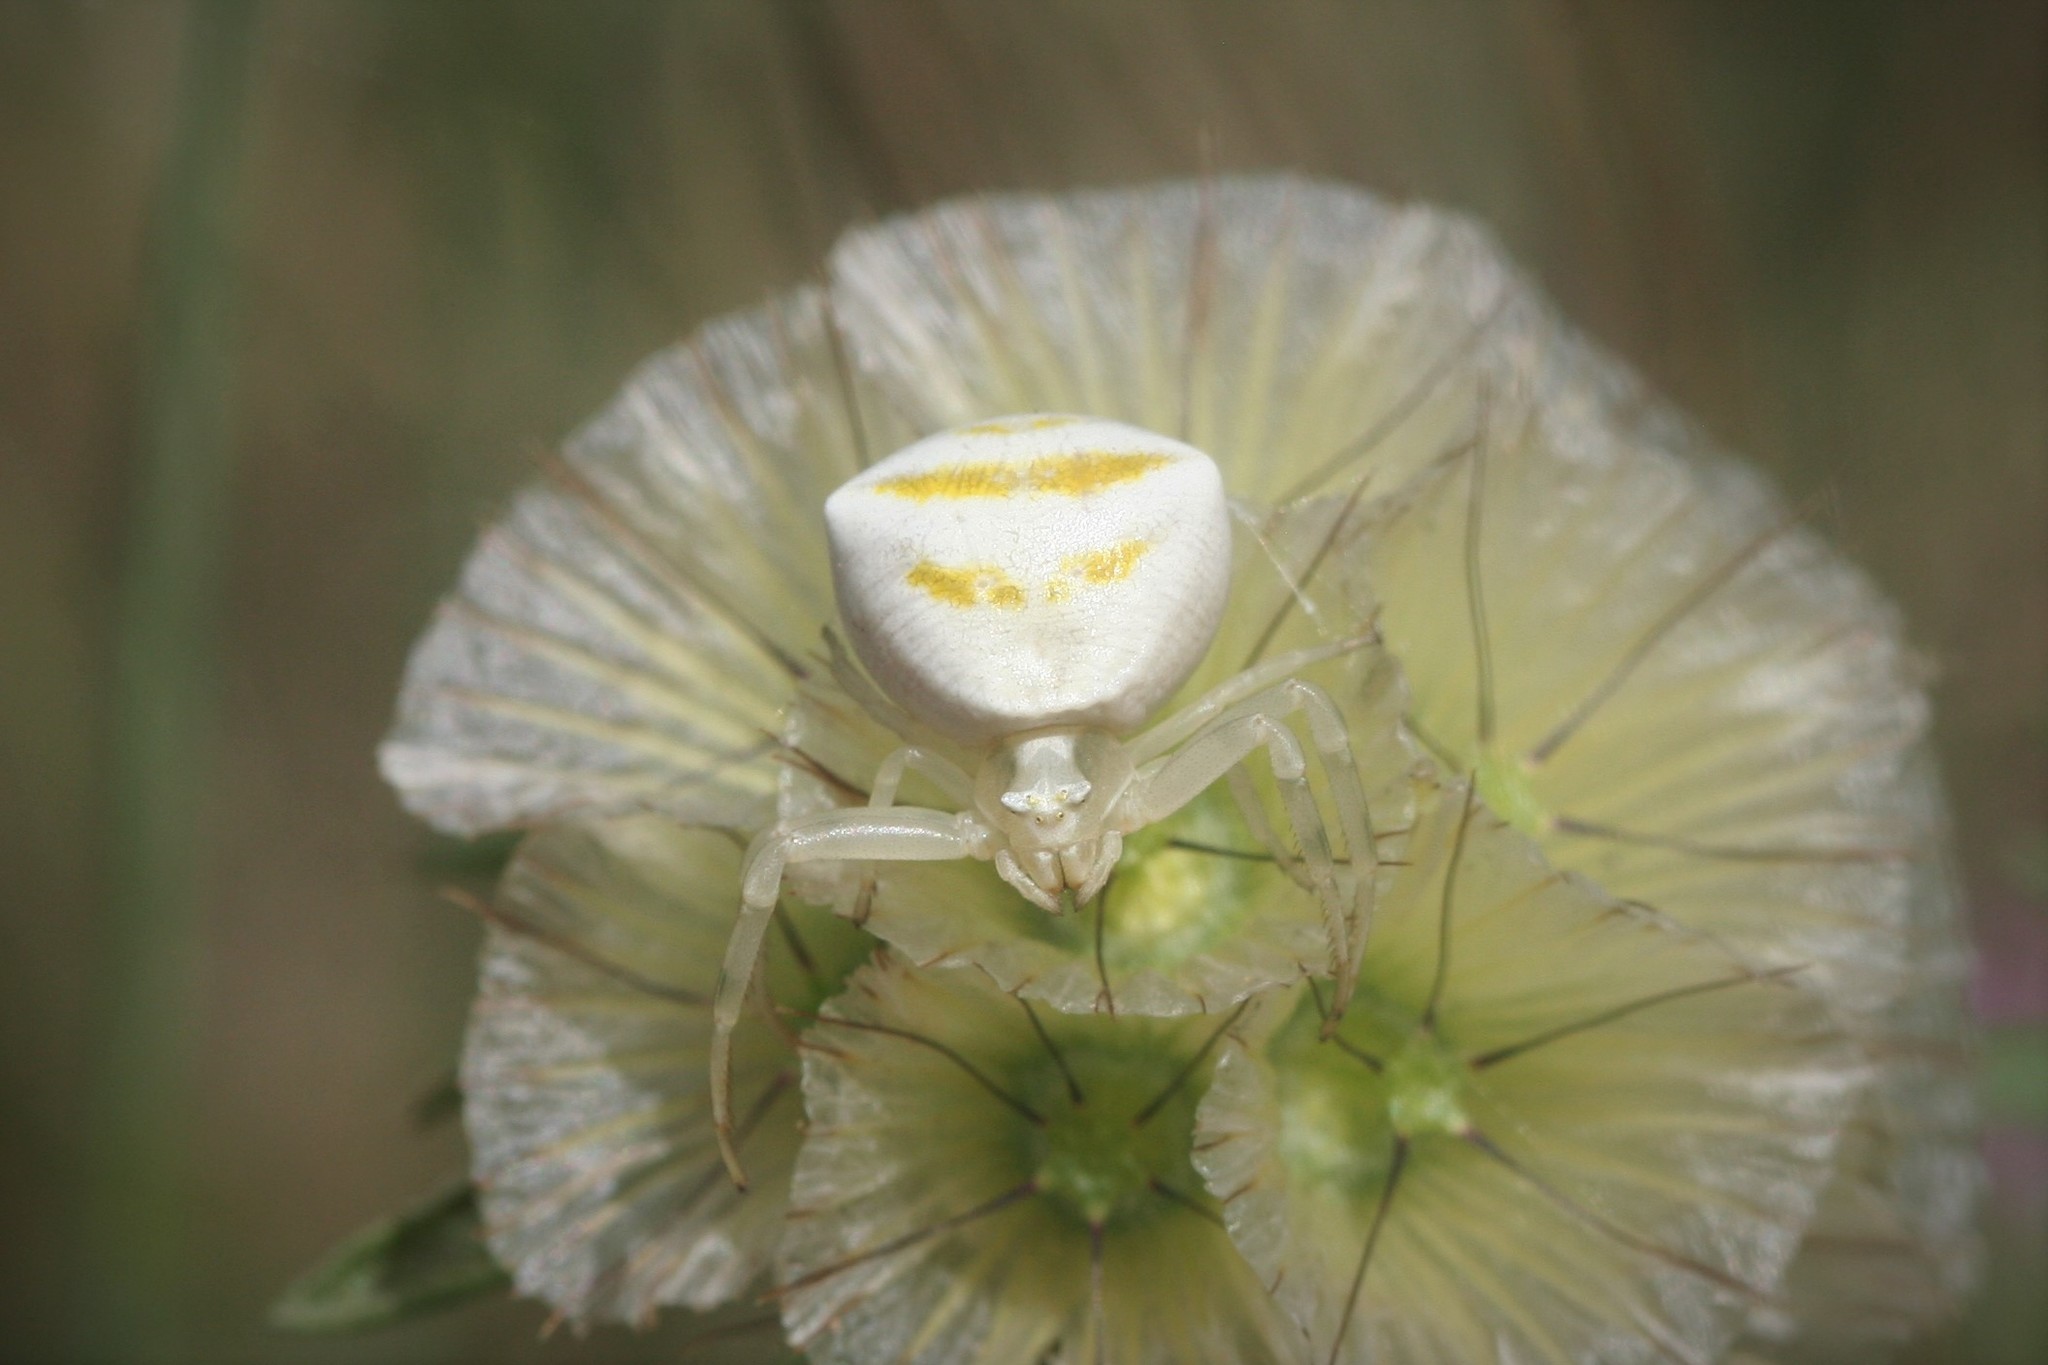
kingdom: Animalia
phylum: Arthropoda
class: Arachnida
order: Araneae
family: Thomisidae
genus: Thomisus
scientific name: Thomisus onustus
